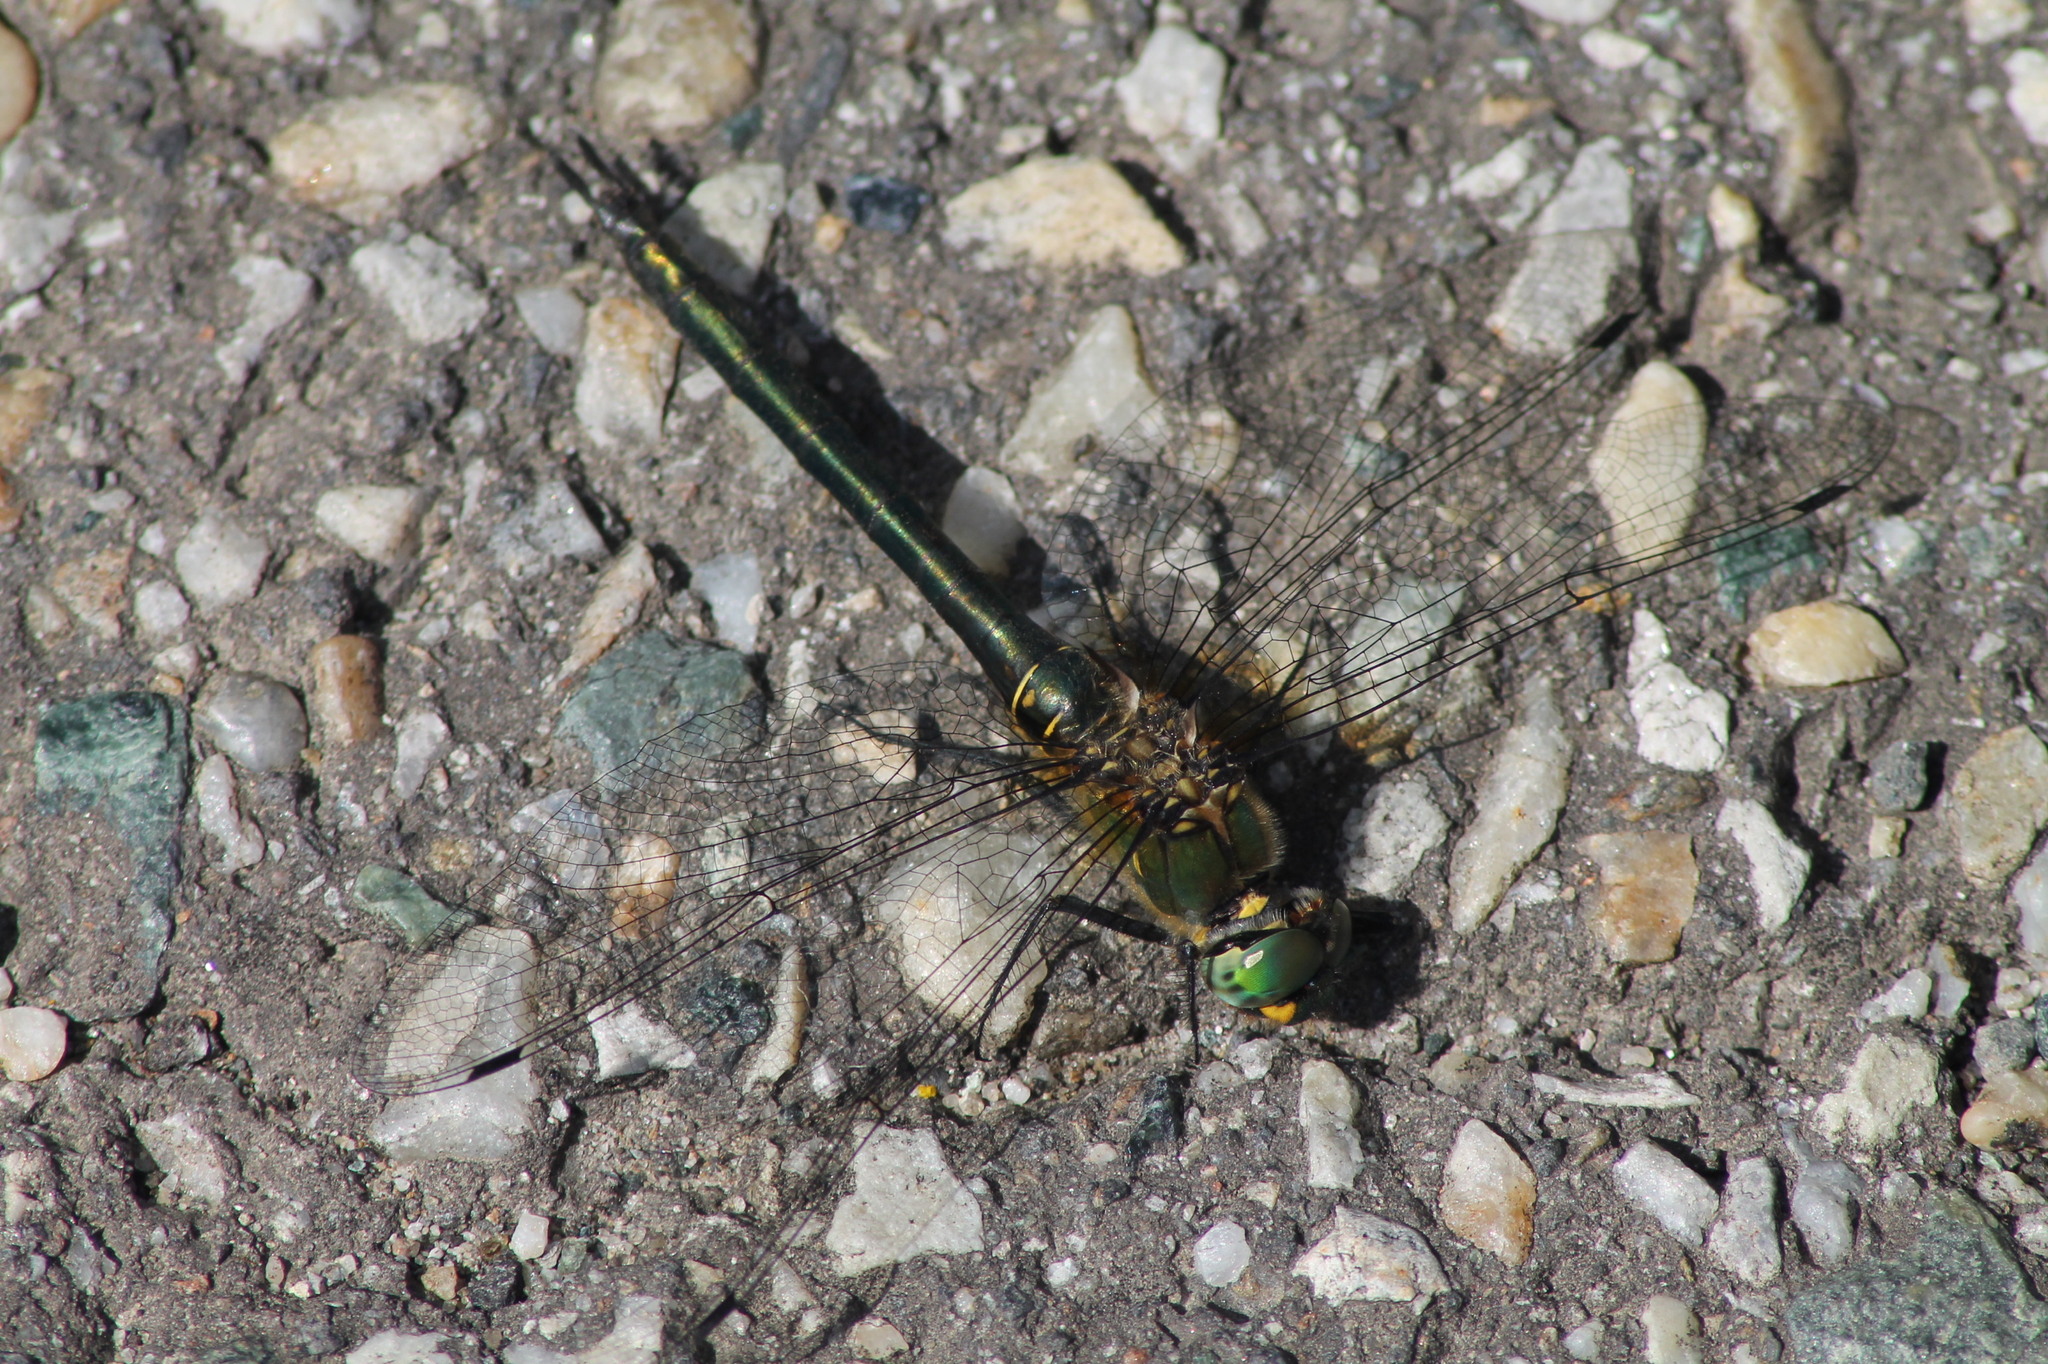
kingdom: Animalia
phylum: Arthropoda
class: Insecta
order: Odonata
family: Corduliidae
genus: Somatochlora
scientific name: Somatochlora meridionalis
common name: Balkan emerald
